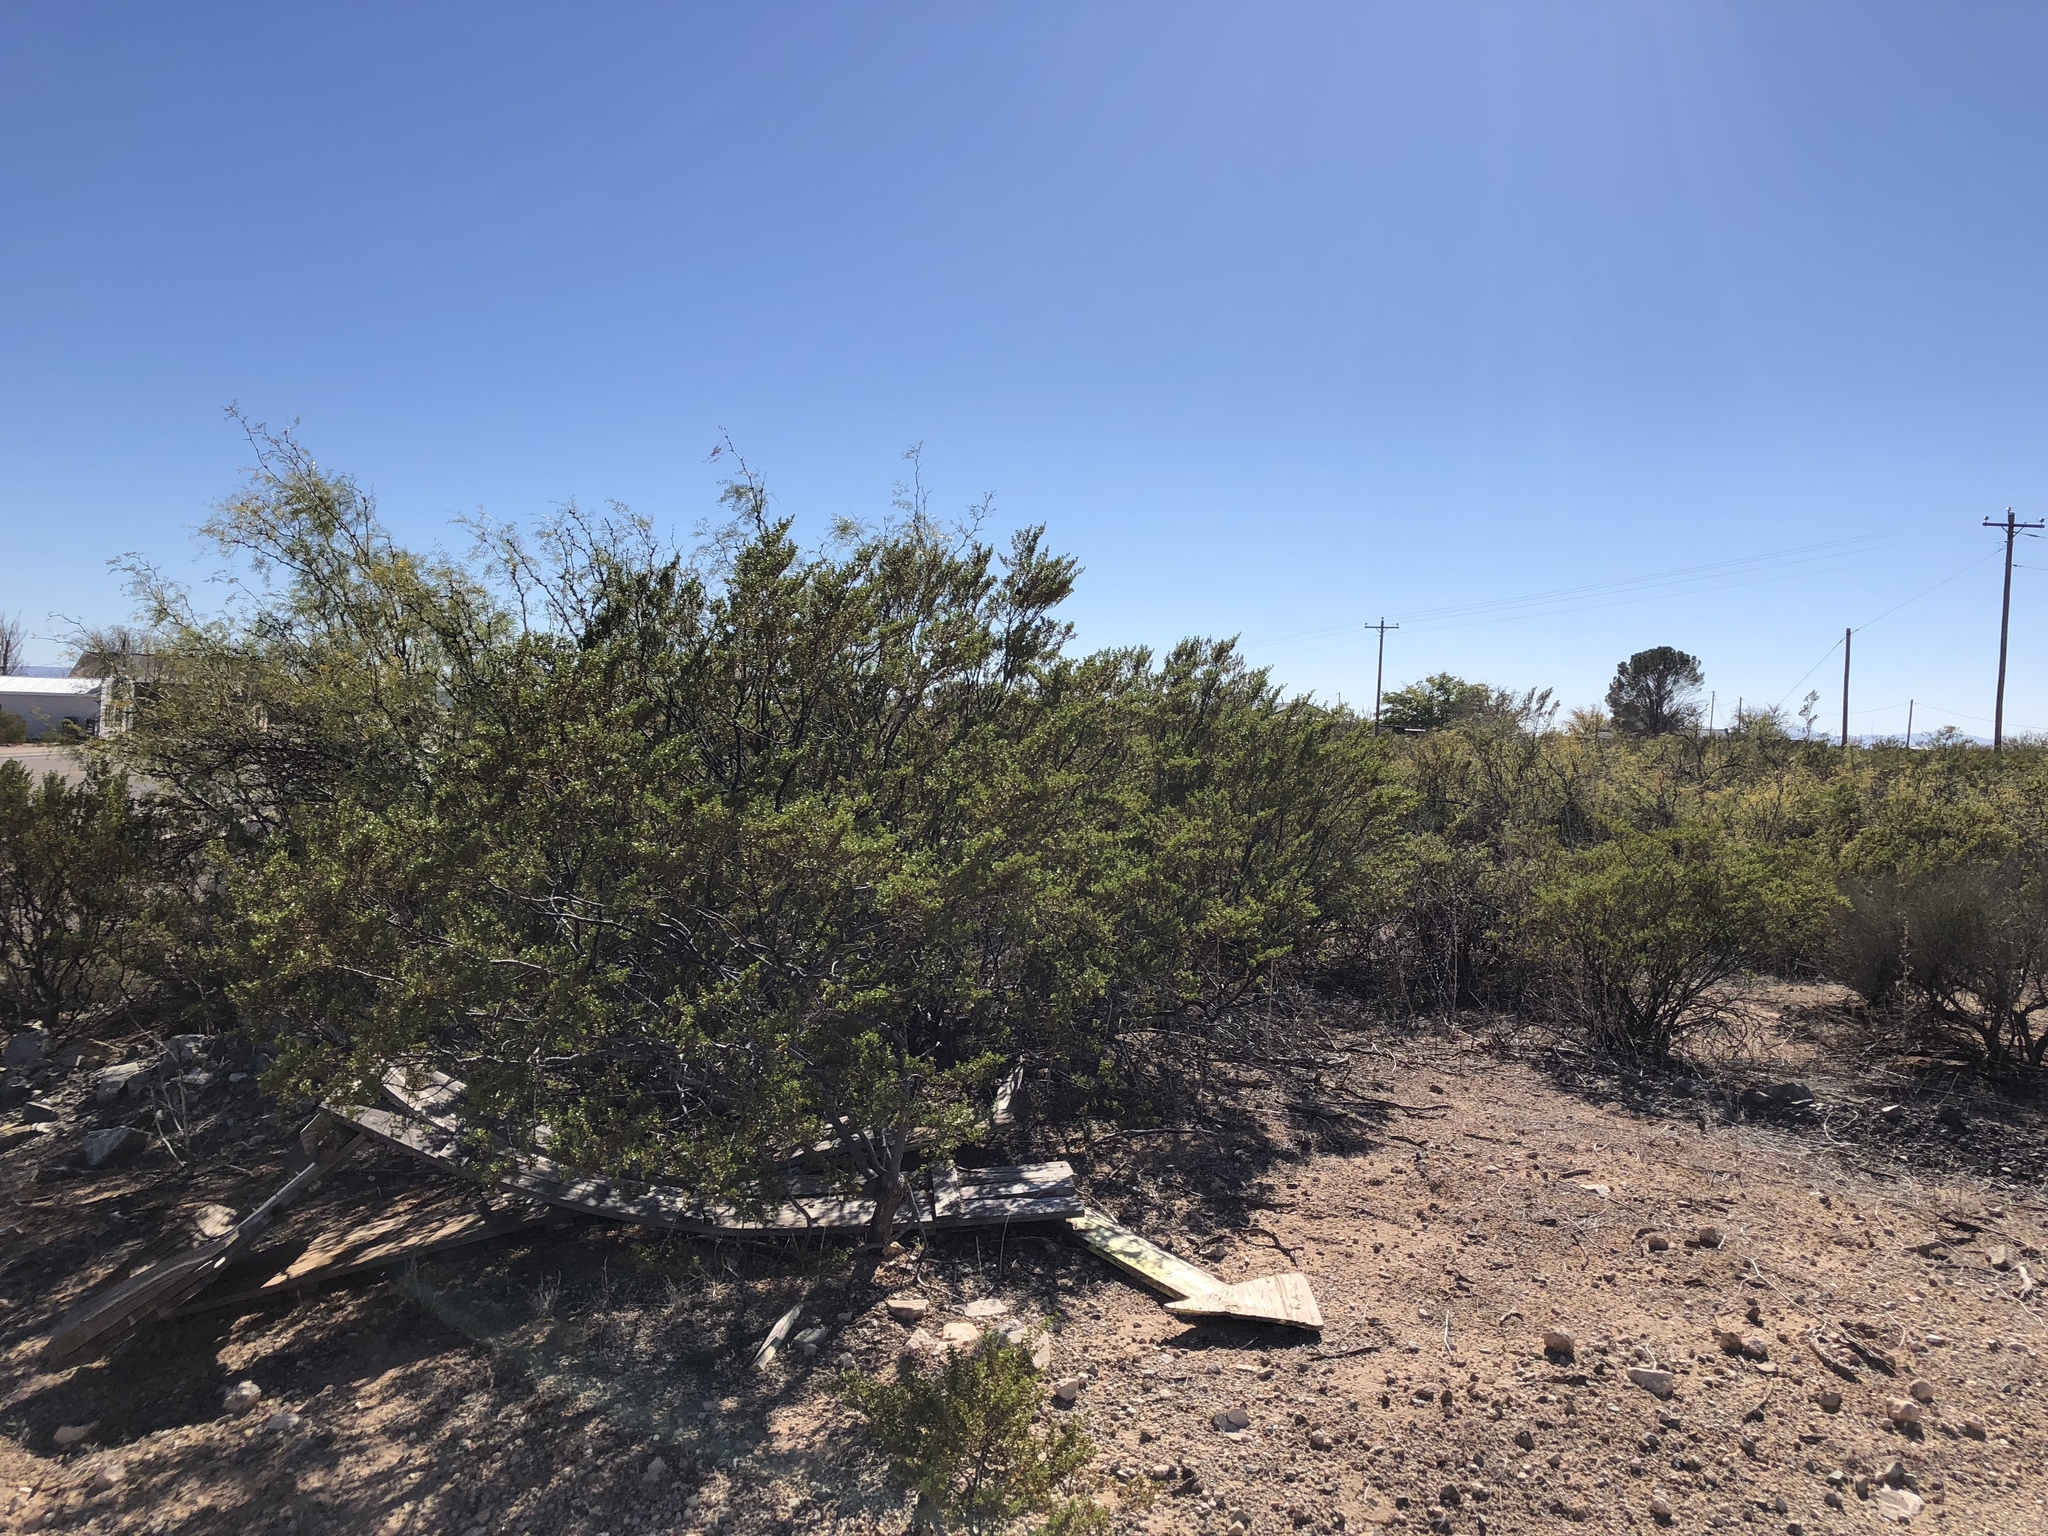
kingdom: Plantae
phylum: Tracheophyta
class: Magnoliopsida
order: Zygophyllales
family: Zygophyllaceae
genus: Larrea
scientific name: Larrea tridentata
